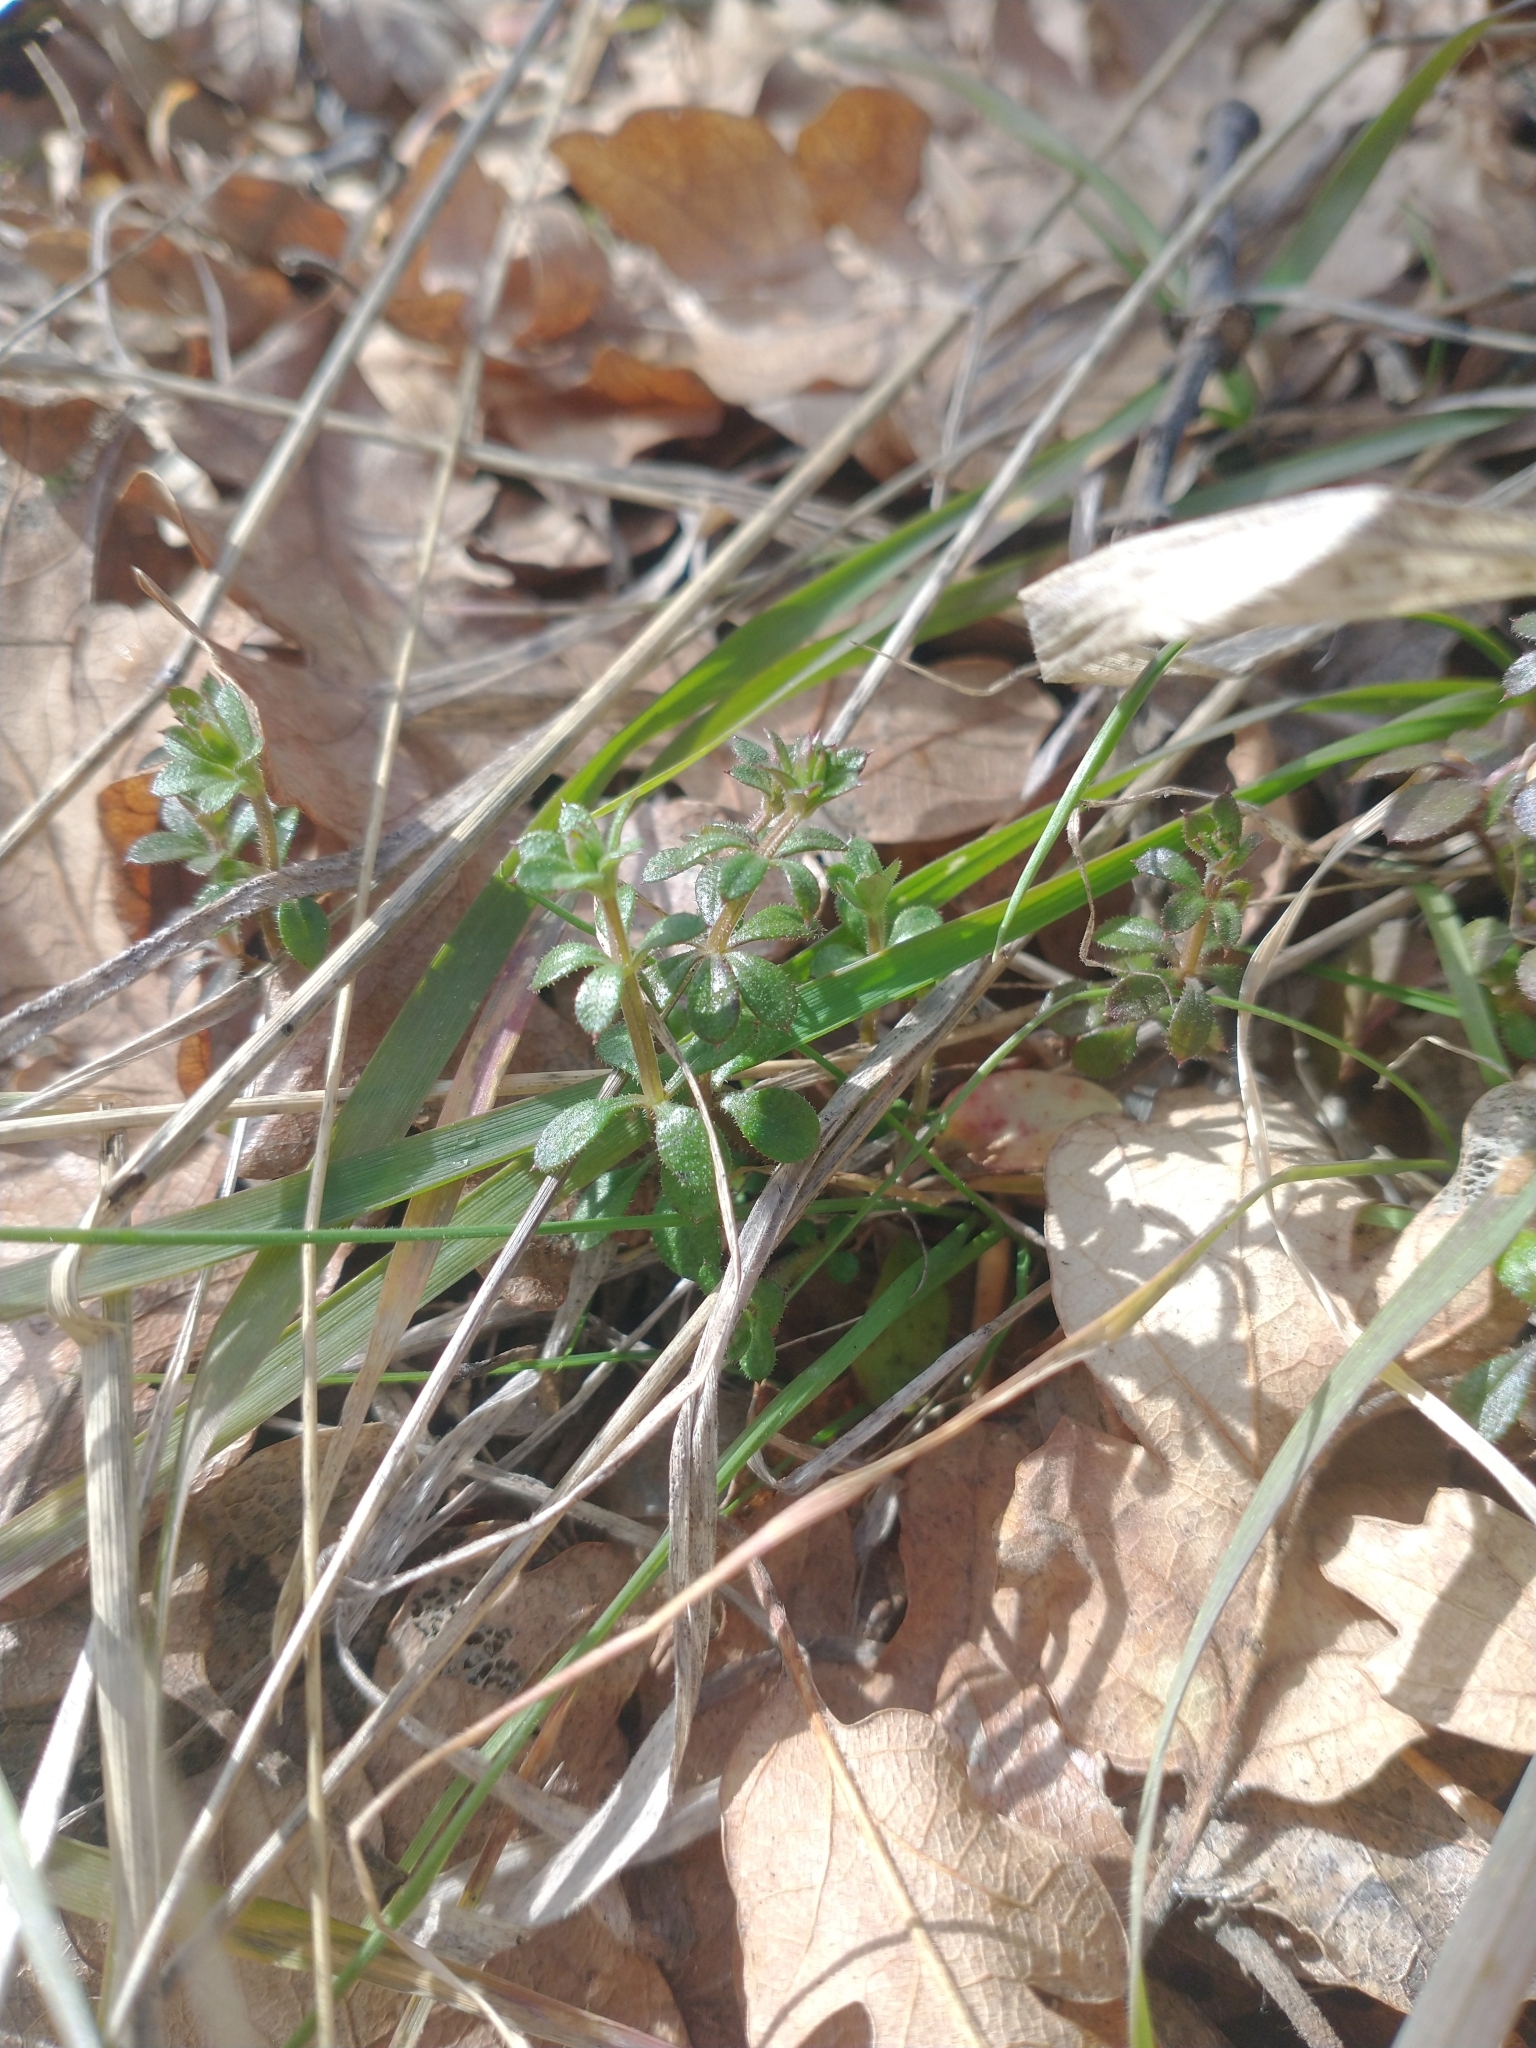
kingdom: Plantae
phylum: Tracheophyta
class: Magnoliopsida
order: Gentianales
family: Rubiaceae
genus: Galium
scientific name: Galium aparine
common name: Cleavers
